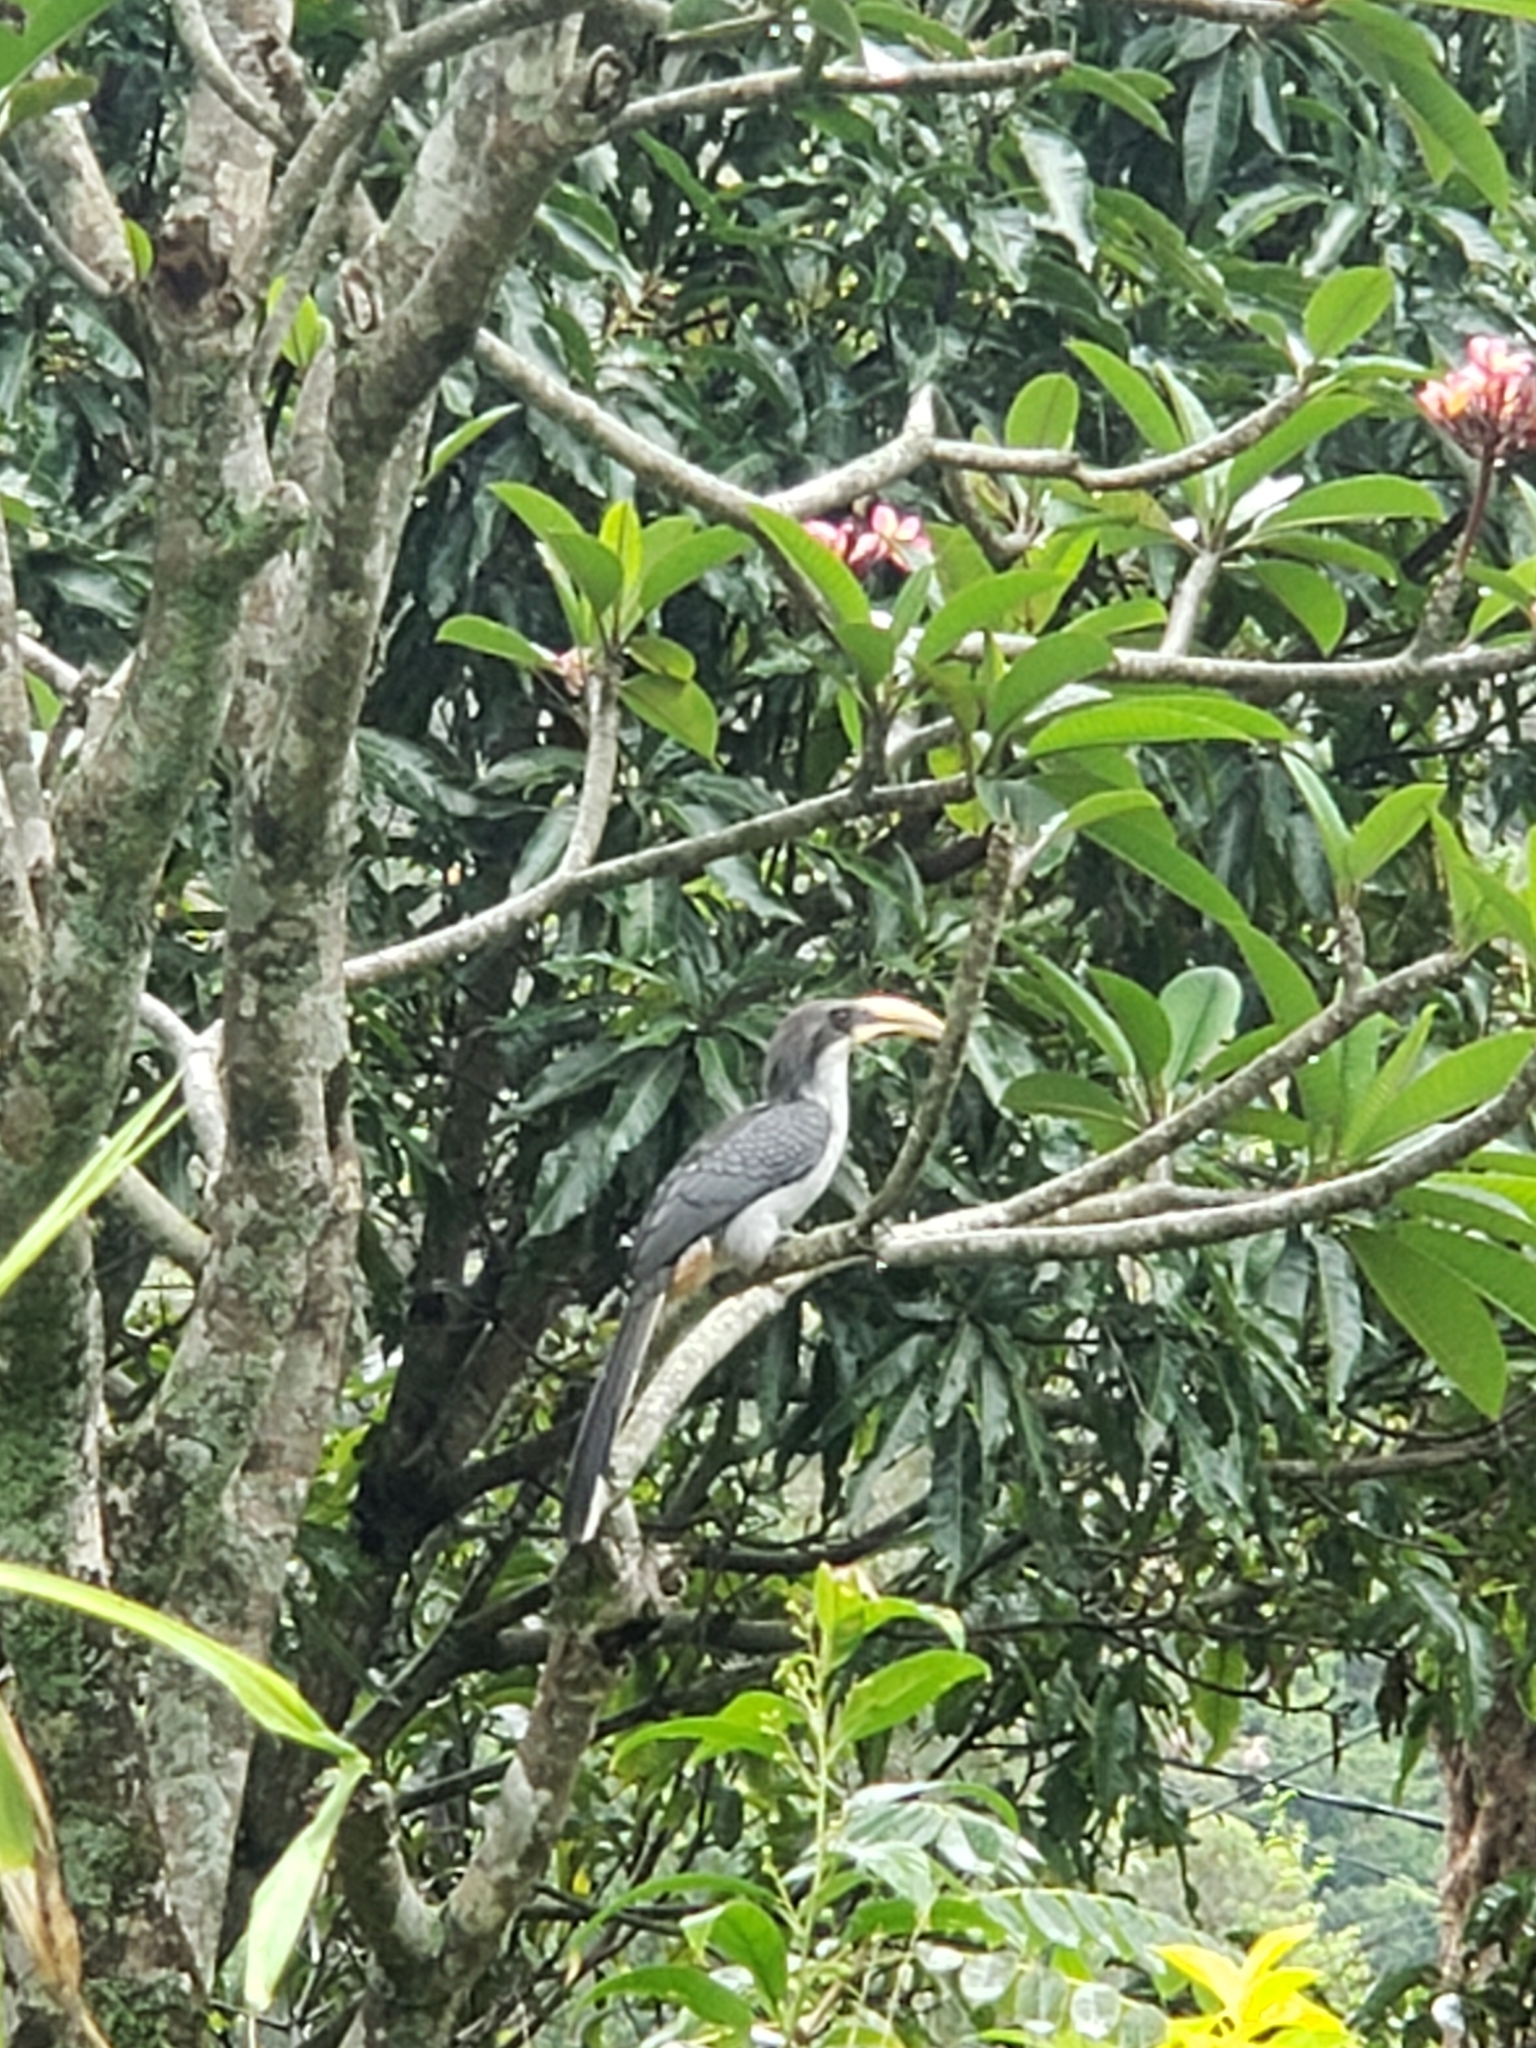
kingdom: Animalia
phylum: Chordata
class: Aves
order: Bucerotiformes
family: Bucerotidae
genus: Ocyceros
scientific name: Ocyceros gingalensis
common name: Sri lanka grey hornbill
